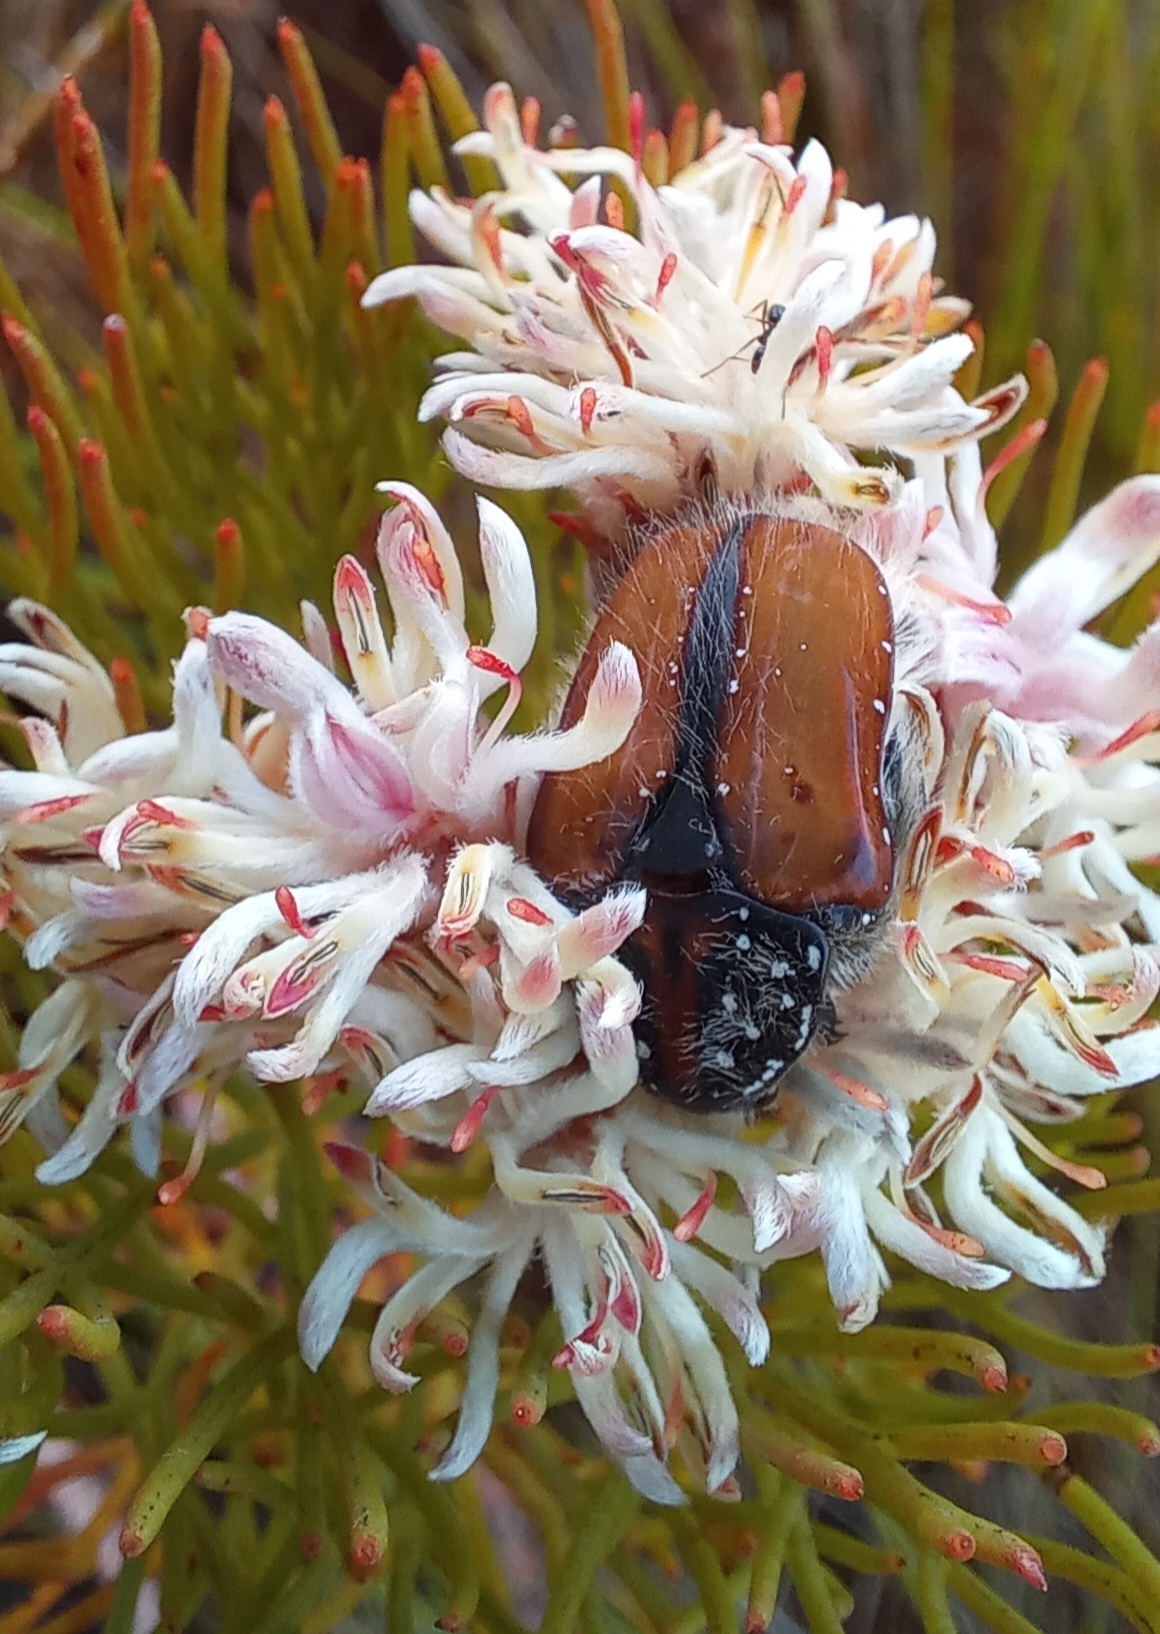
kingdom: Animalia
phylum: Arthropoda
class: Insecta
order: Coleoptera
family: Scarabaeidae
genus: Trichostetha
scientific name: Trichostetha capensis
